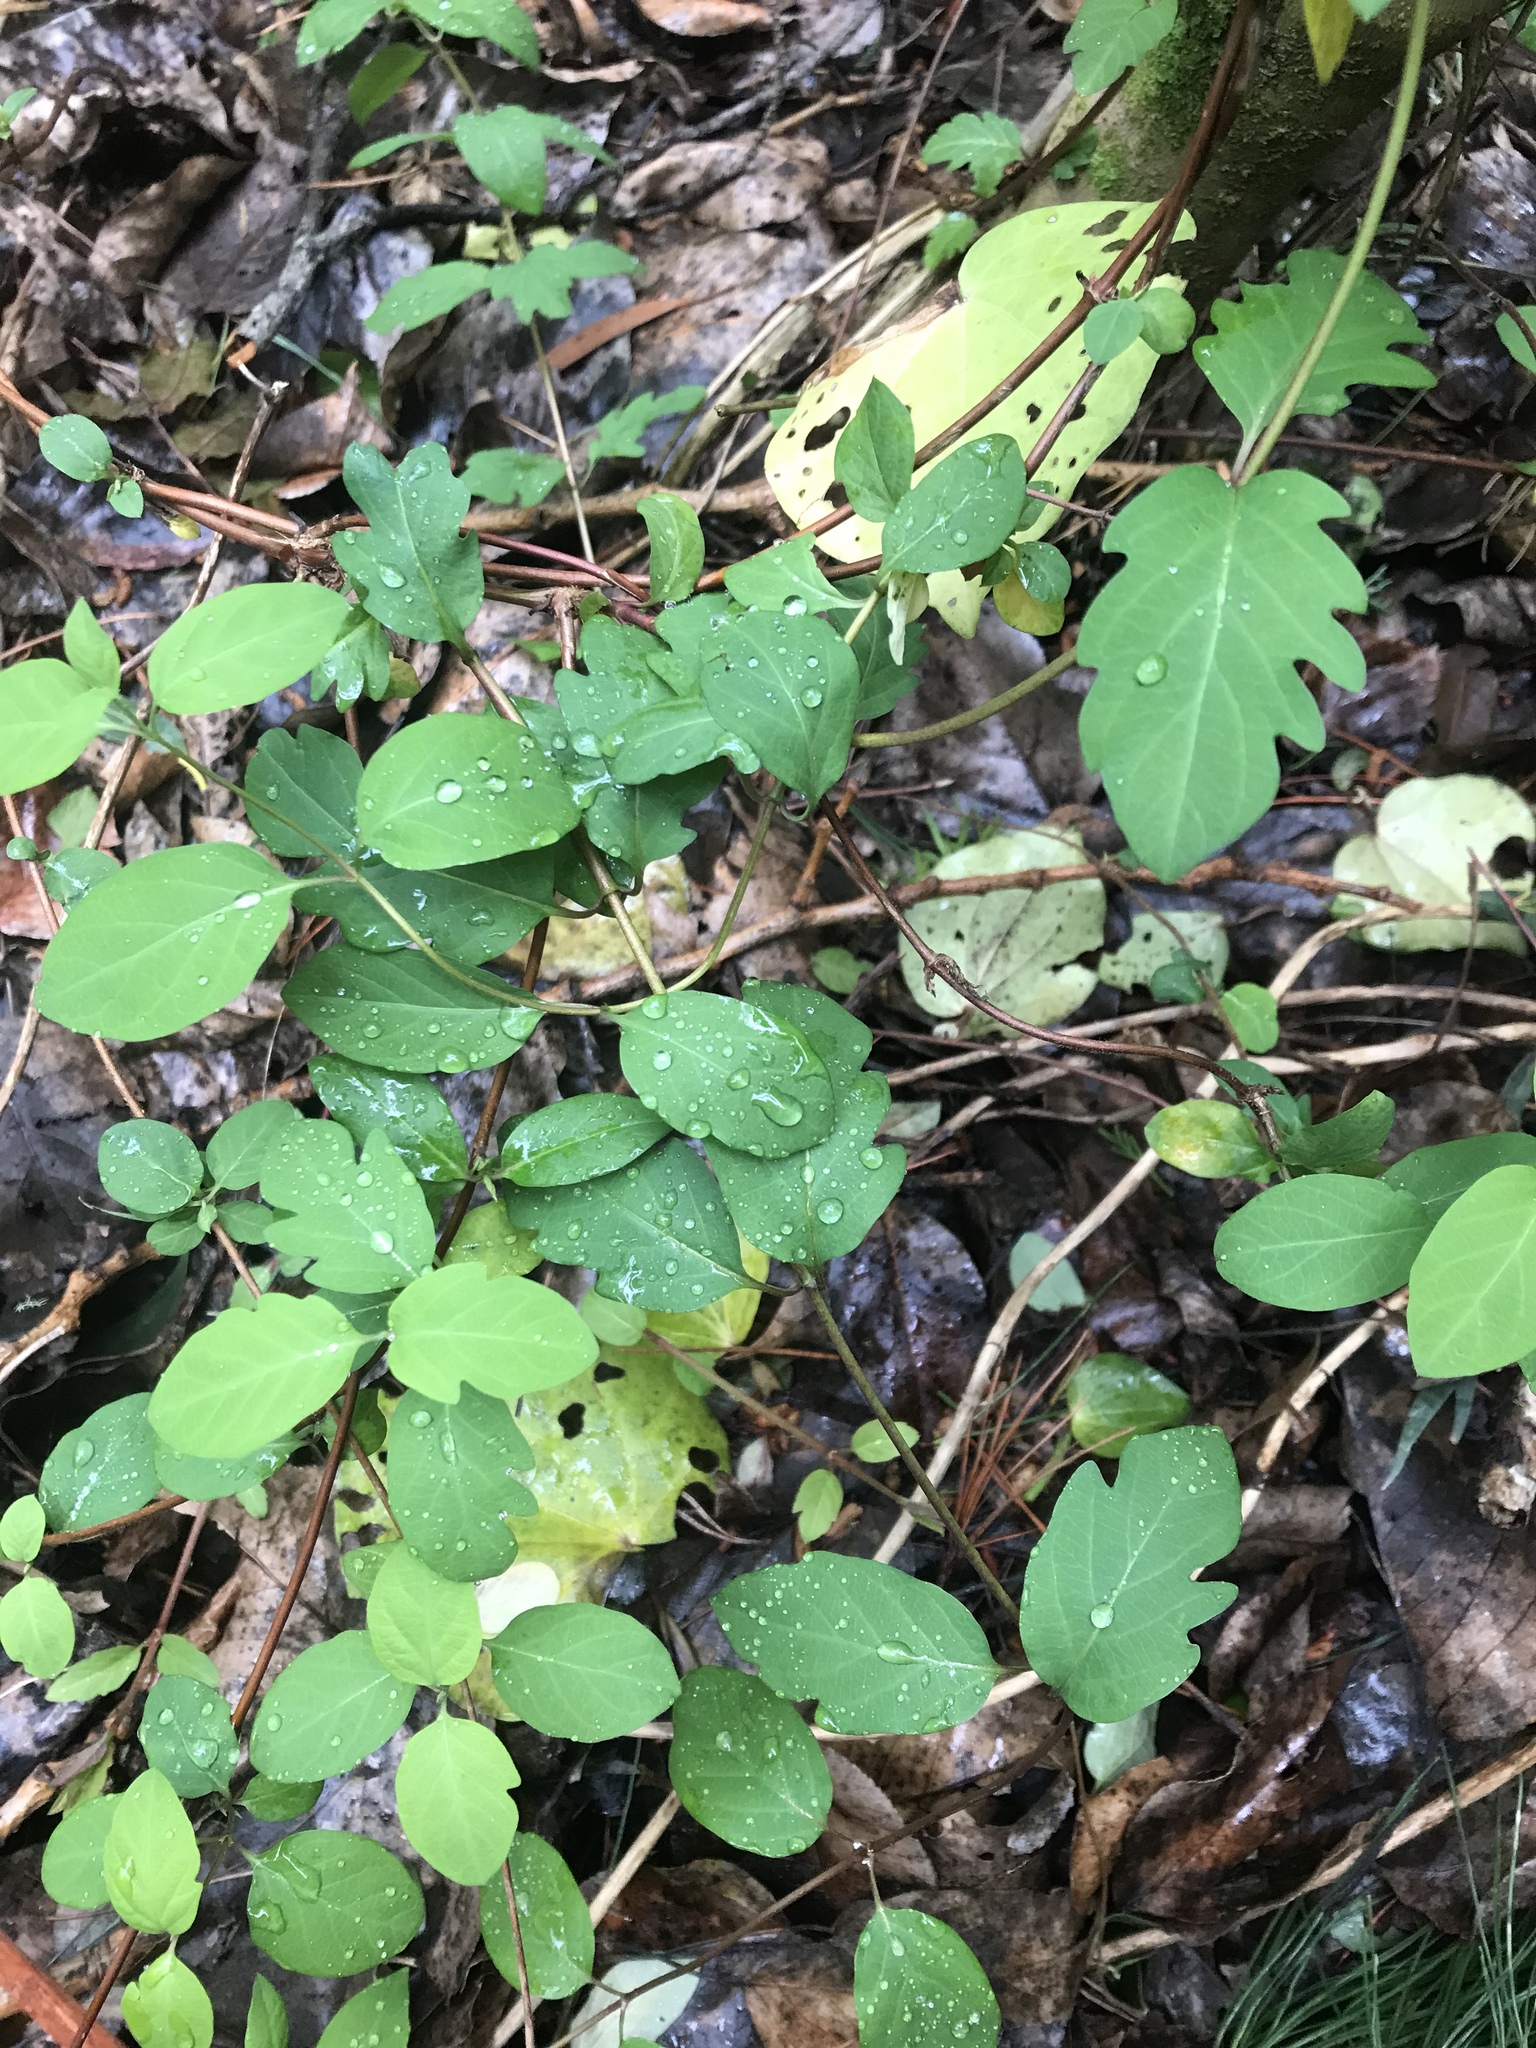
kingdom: Plantae
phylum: Tracheophyta
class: Magnoliopsida
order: Dipsacales
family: Caprifoliaceae
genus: Lonicera
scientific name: Lonicera japonica
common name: Japanese honeysuckle
